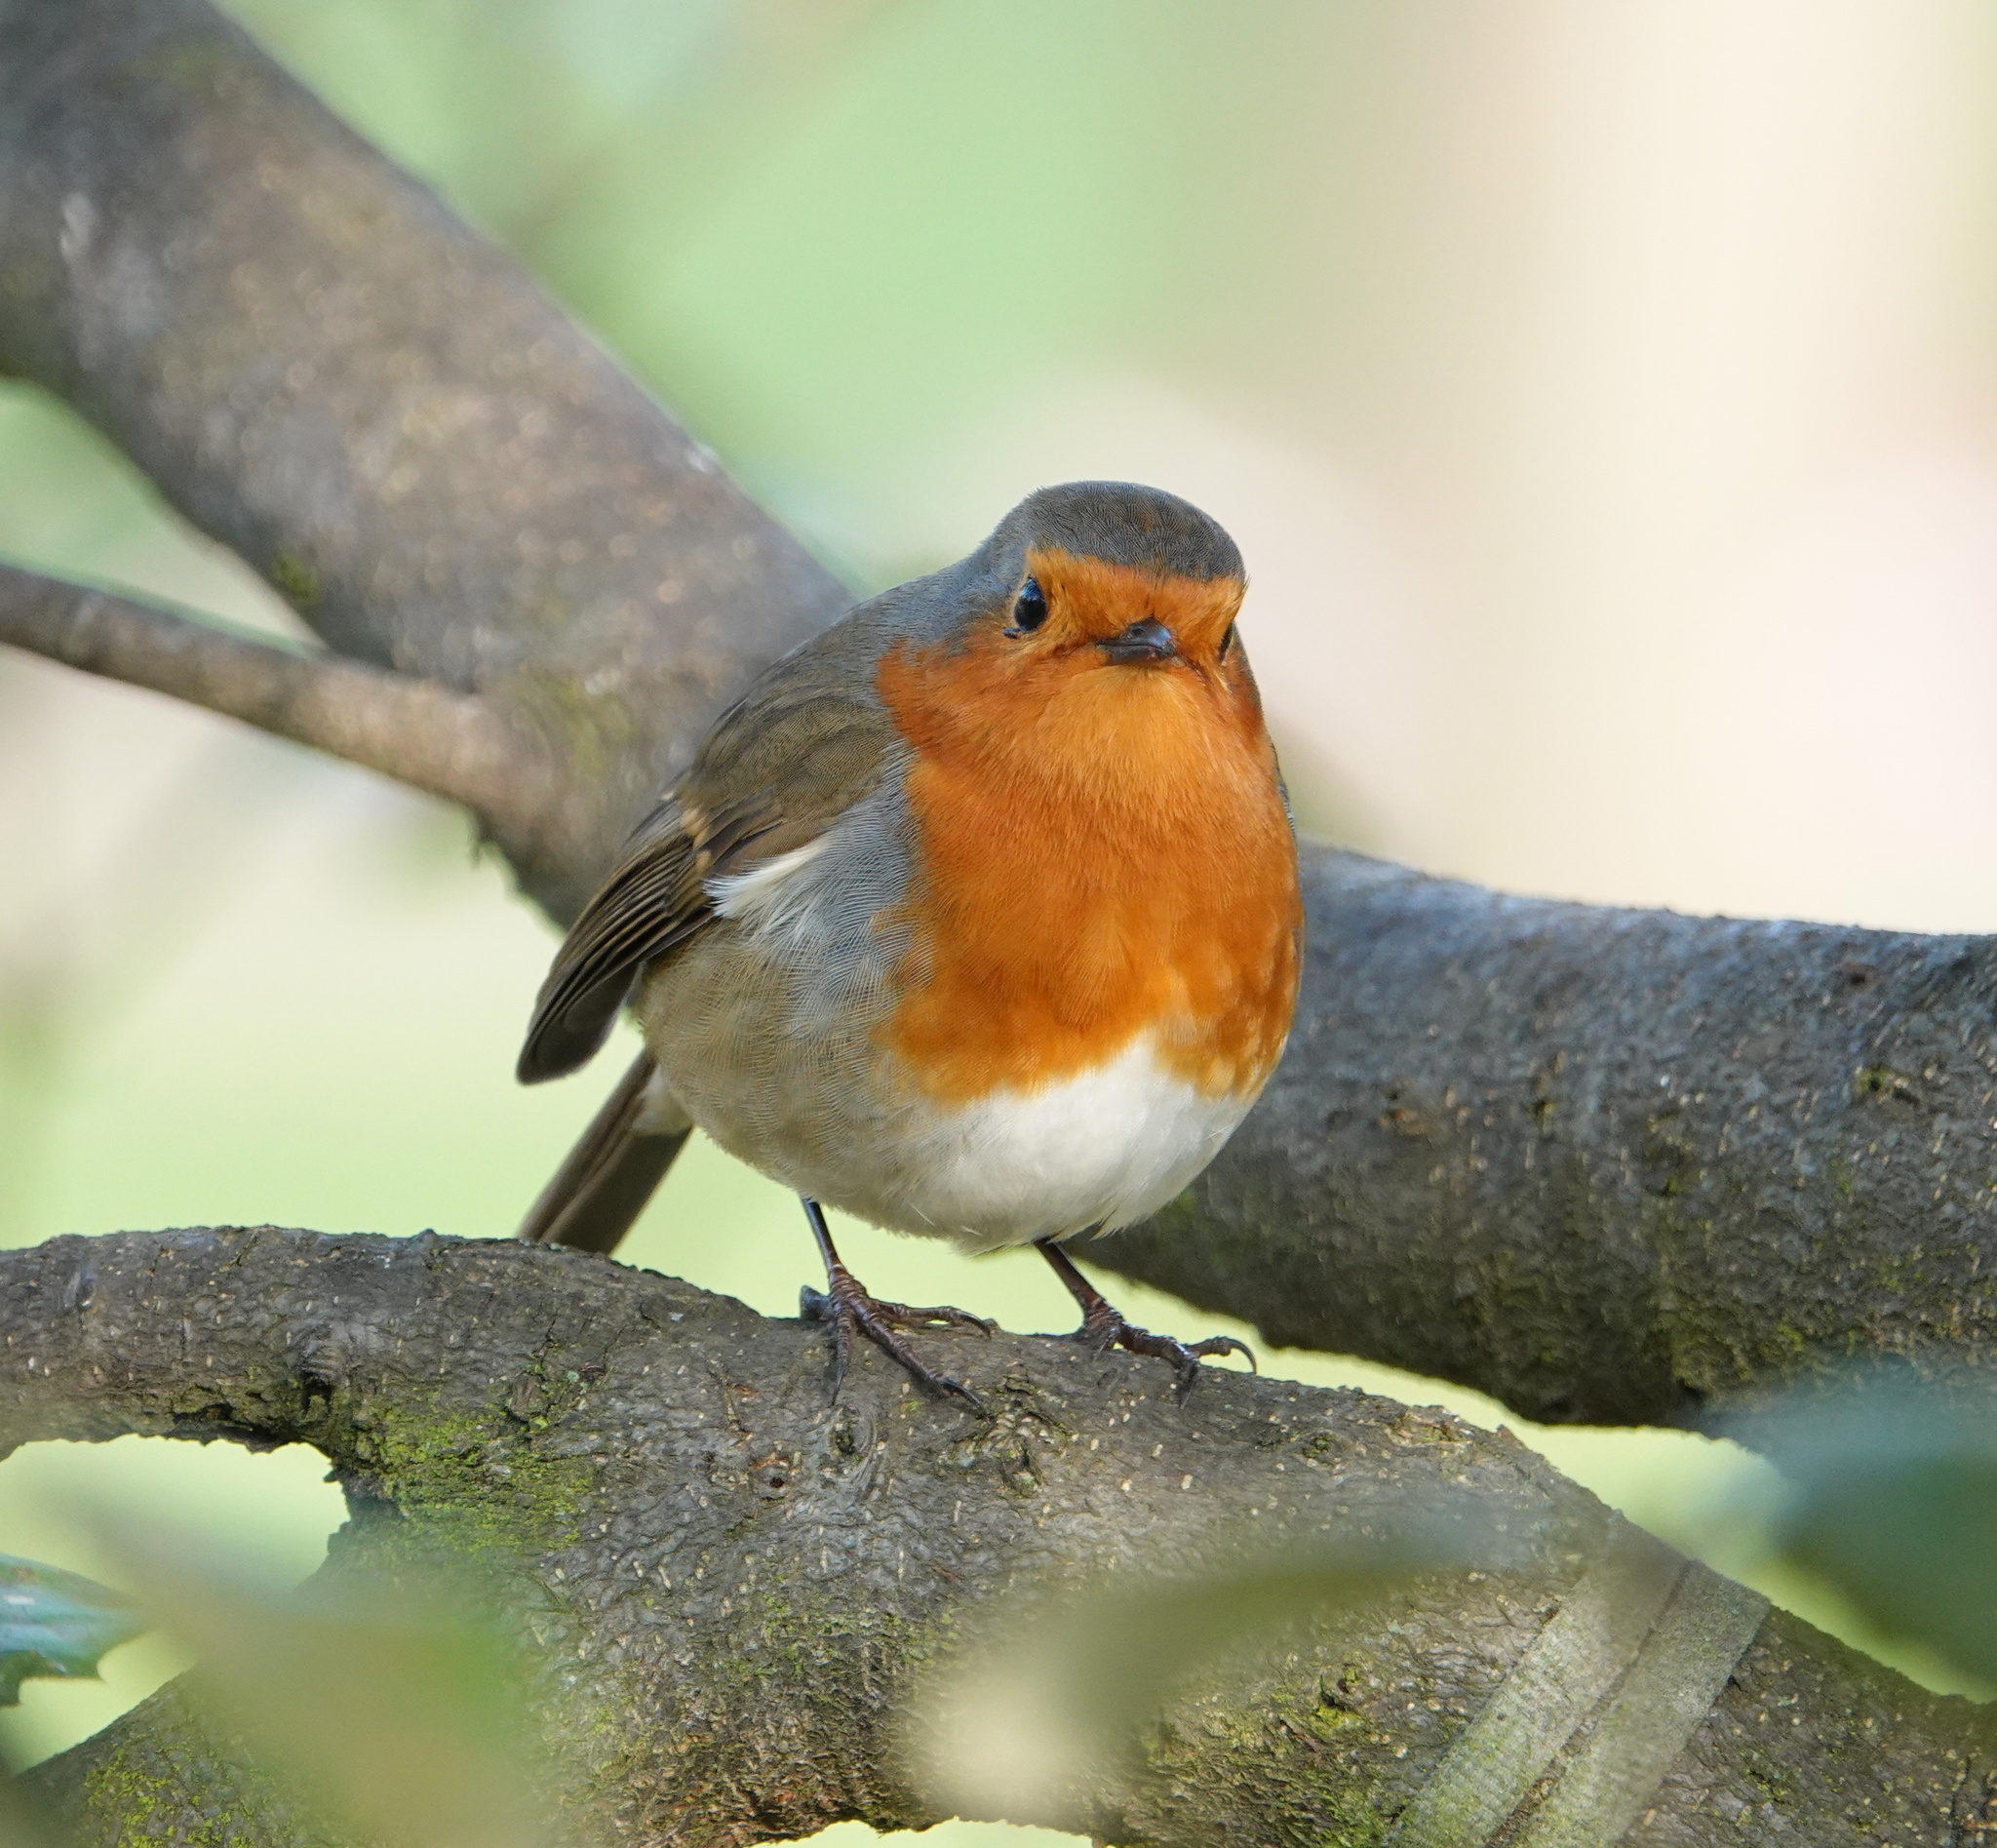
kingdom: Animalia
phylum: Chordata
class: Aves
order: Passeriformes
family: Muscicapidae
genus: Erithacus
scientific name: Erithacus rubecula
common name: European robin
